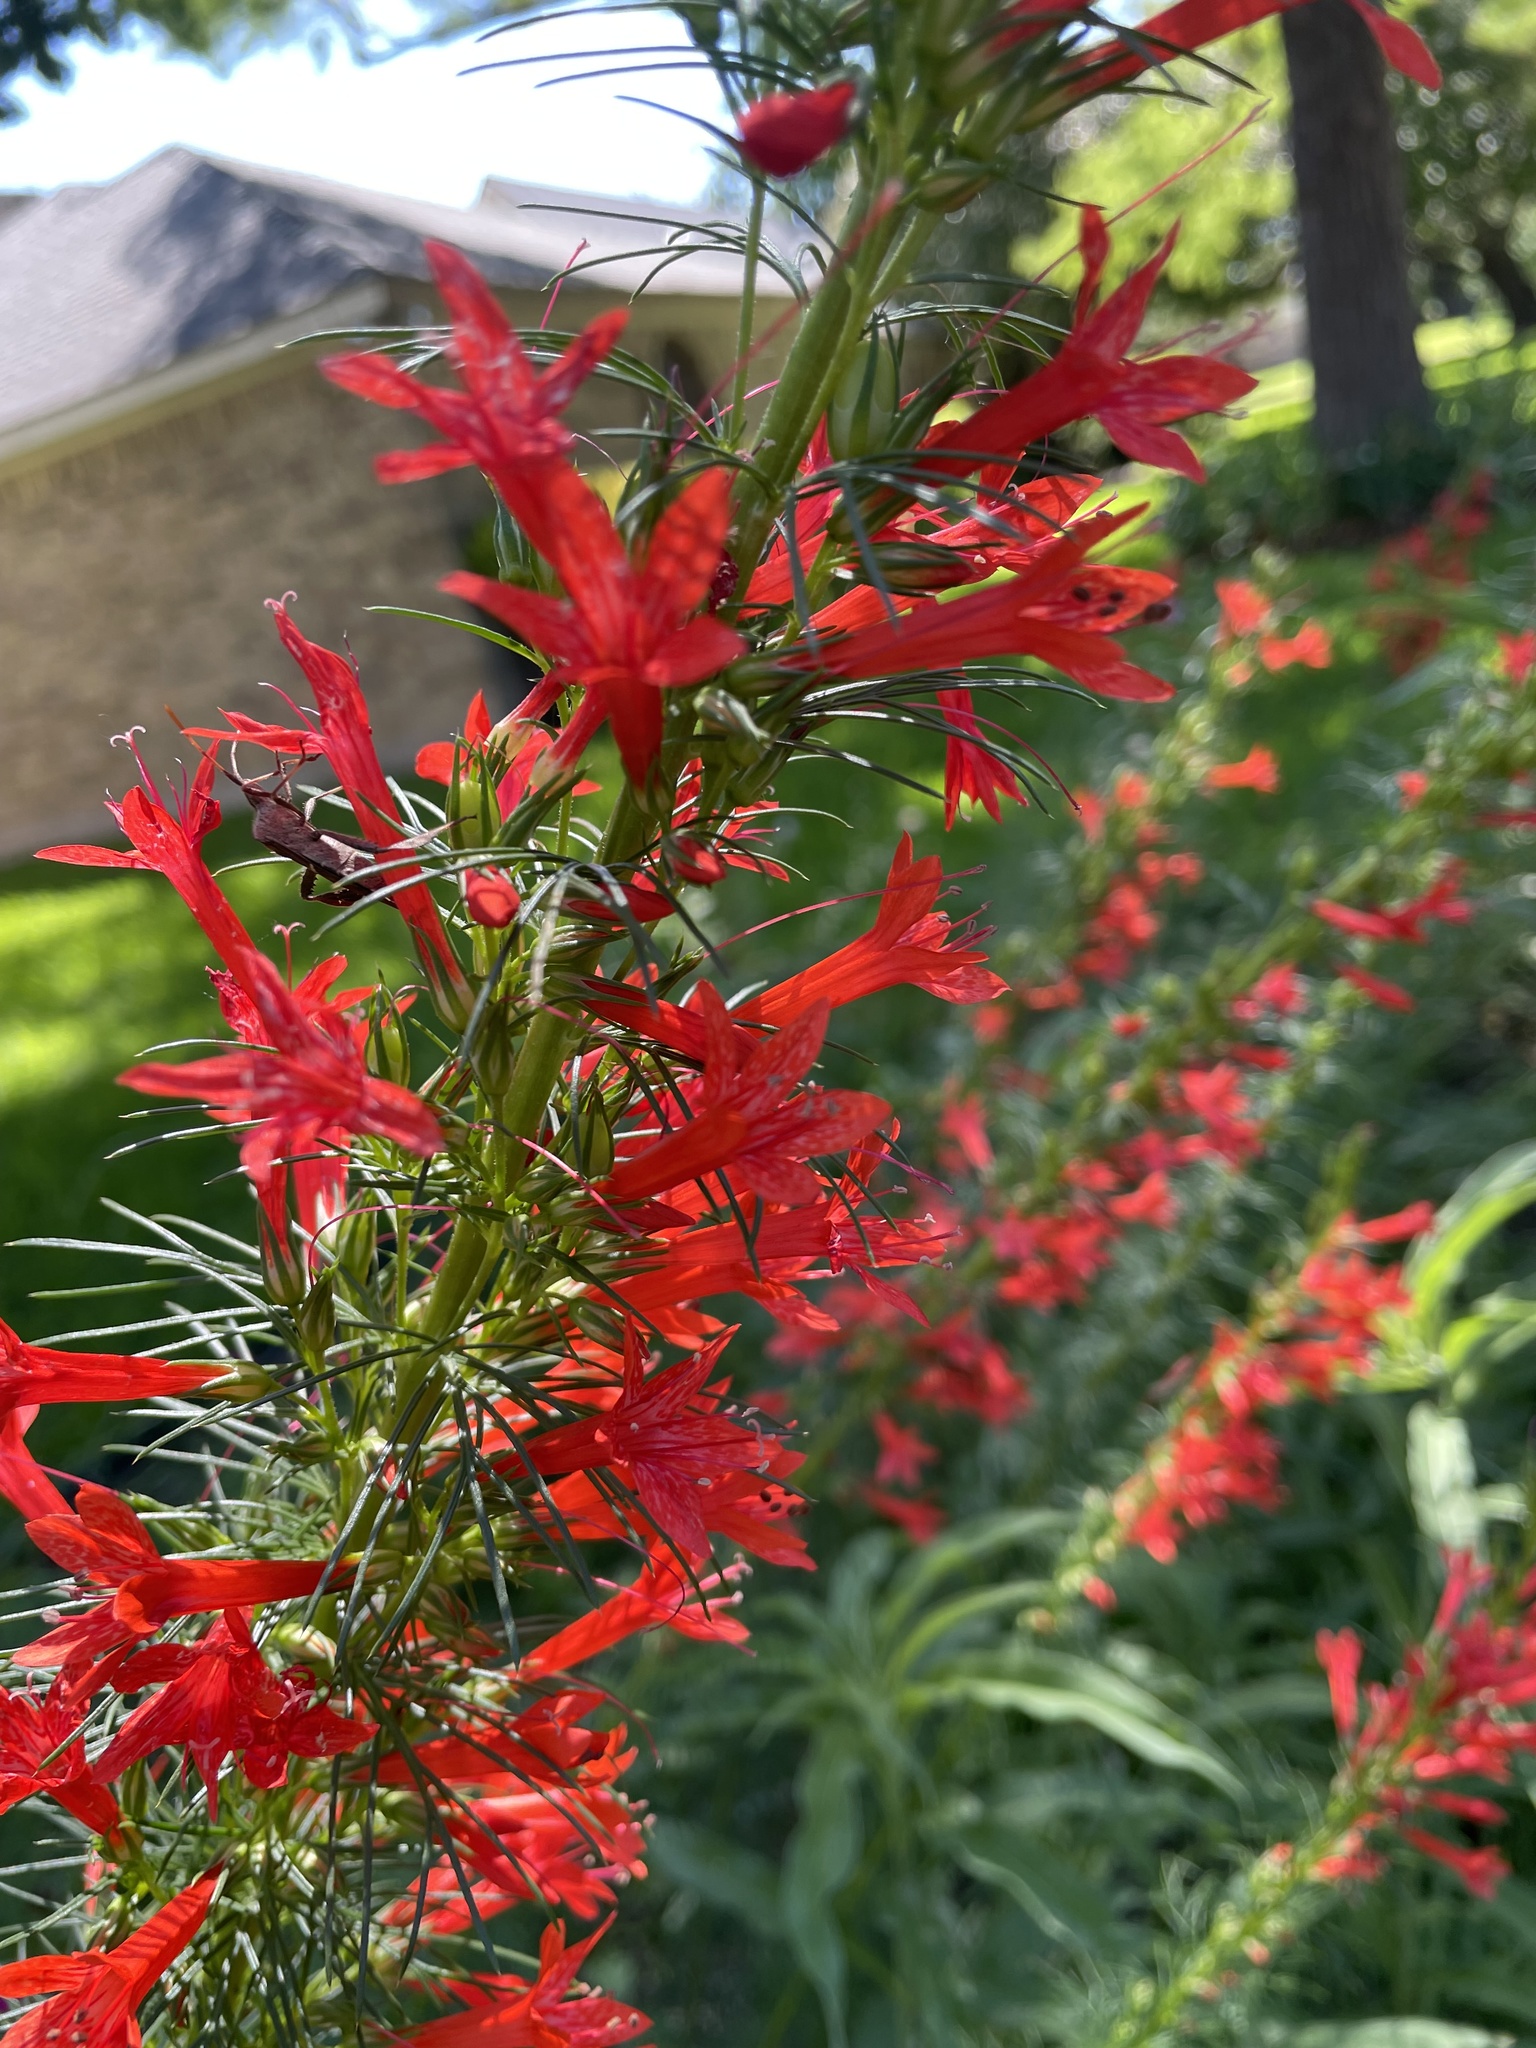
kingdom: Plantae
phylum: Tracheophyta
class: Magnoliopsida
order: Ericales
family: Polemoniaceae
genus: Ipomopsis
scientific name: Ipomopsis rubra
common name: Skyrocket
